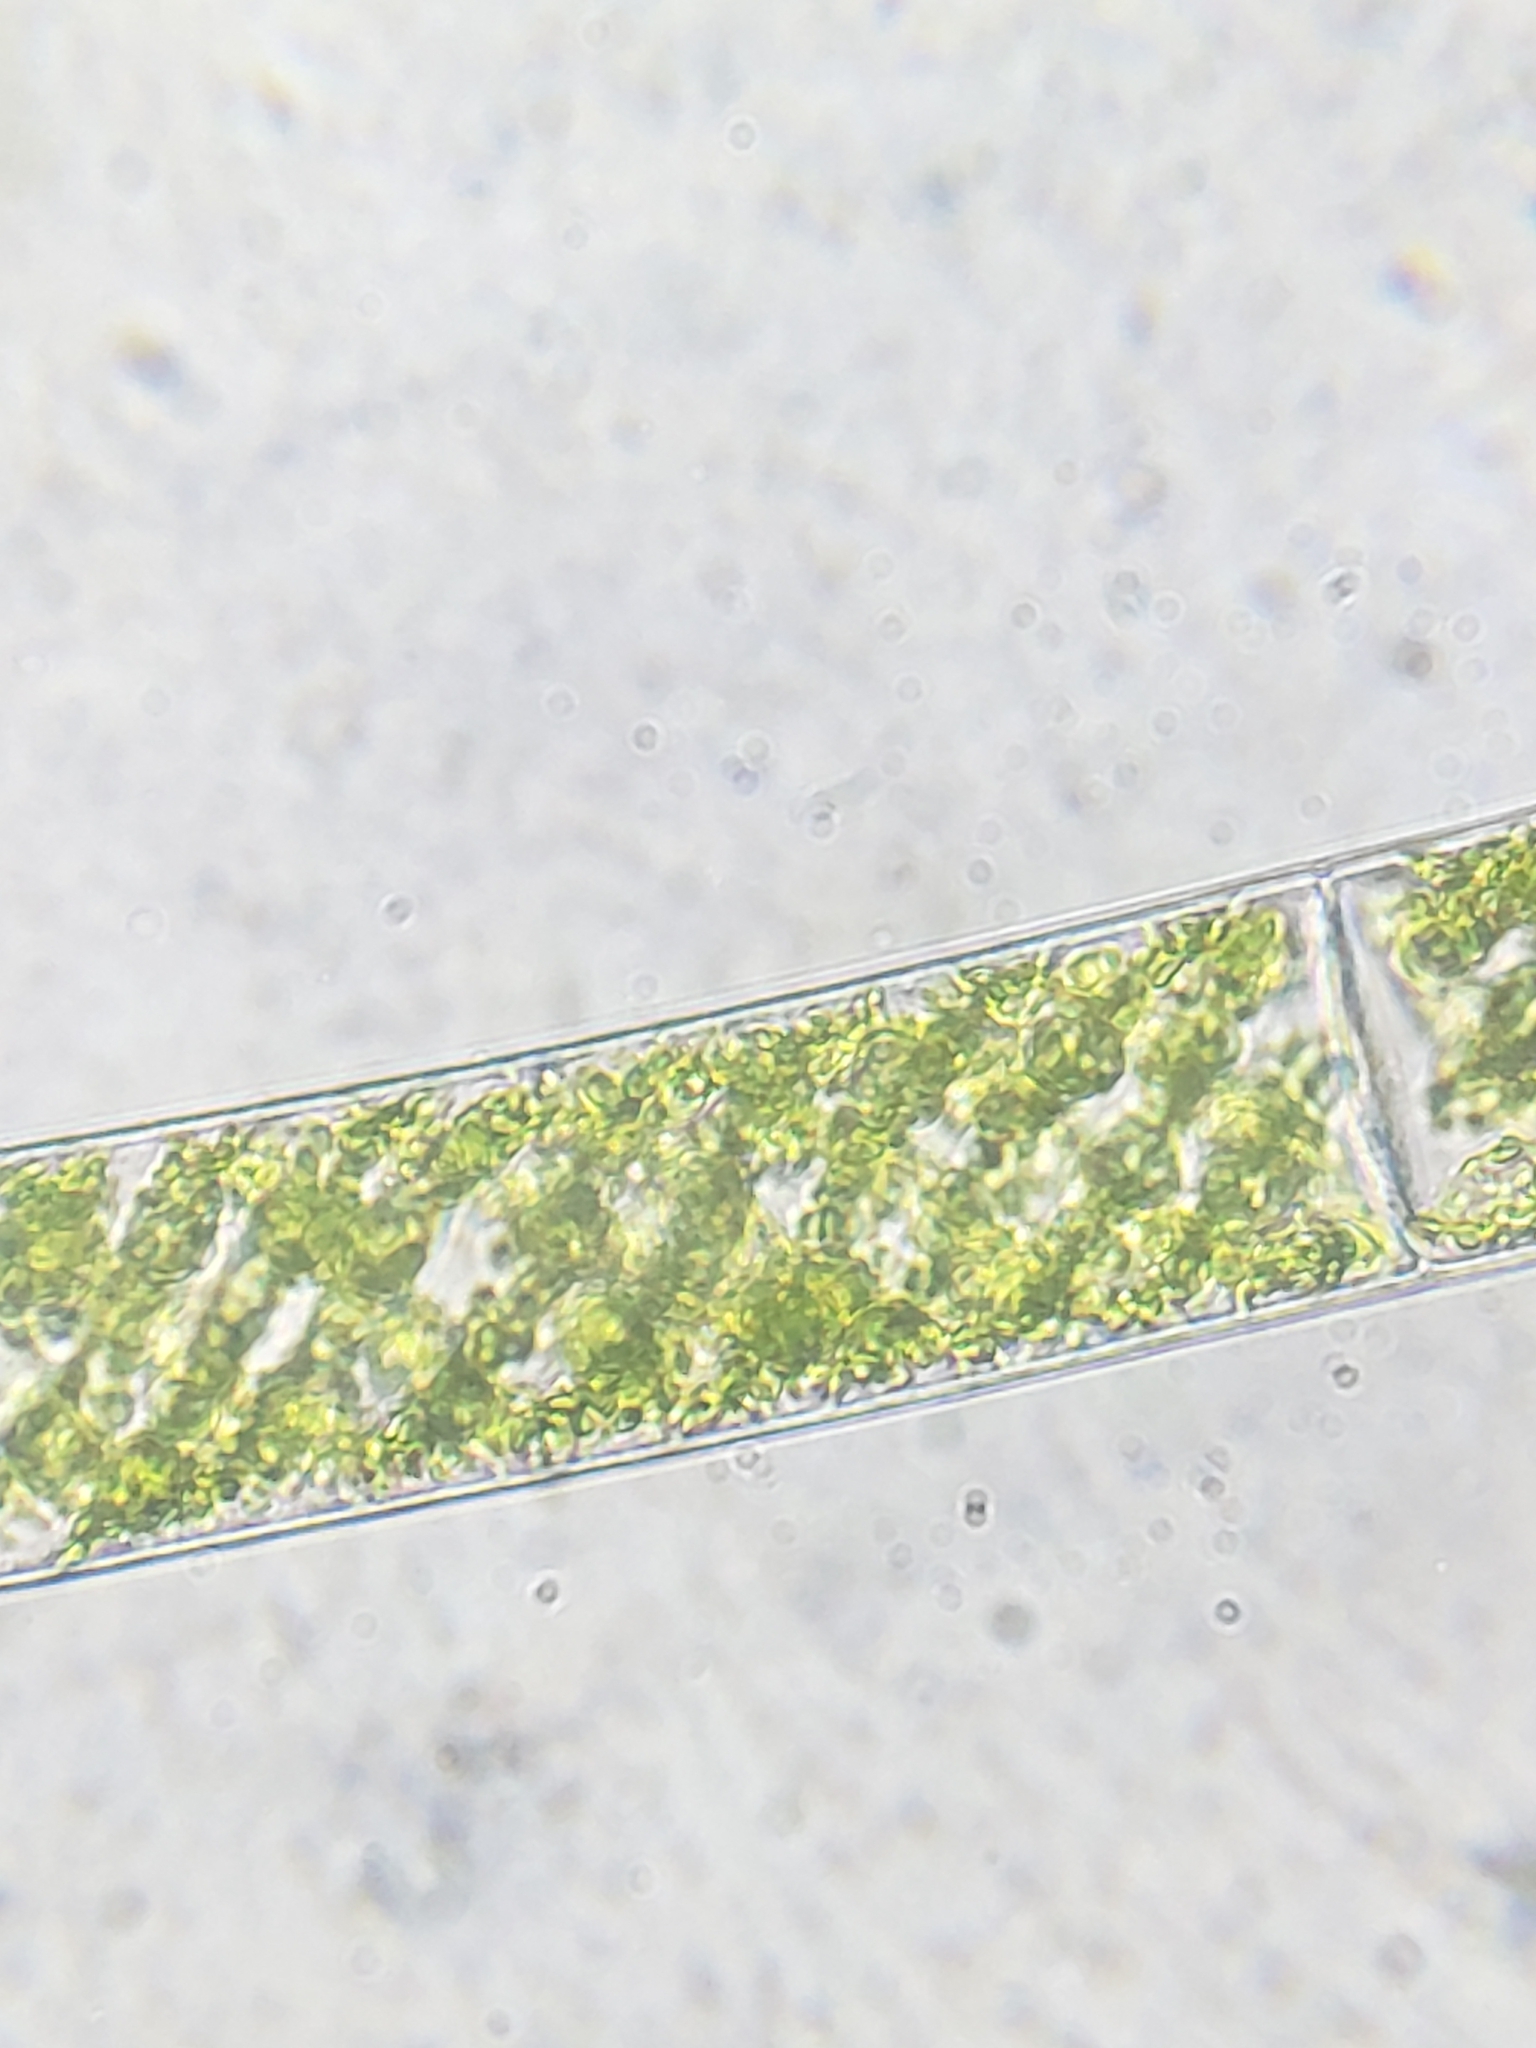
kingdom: Plantae
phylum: Charophyta
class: Zygnematophyceae
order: Zygnematales
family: Zygnemataceae
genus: Spirogyra
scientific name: Spirogyra
